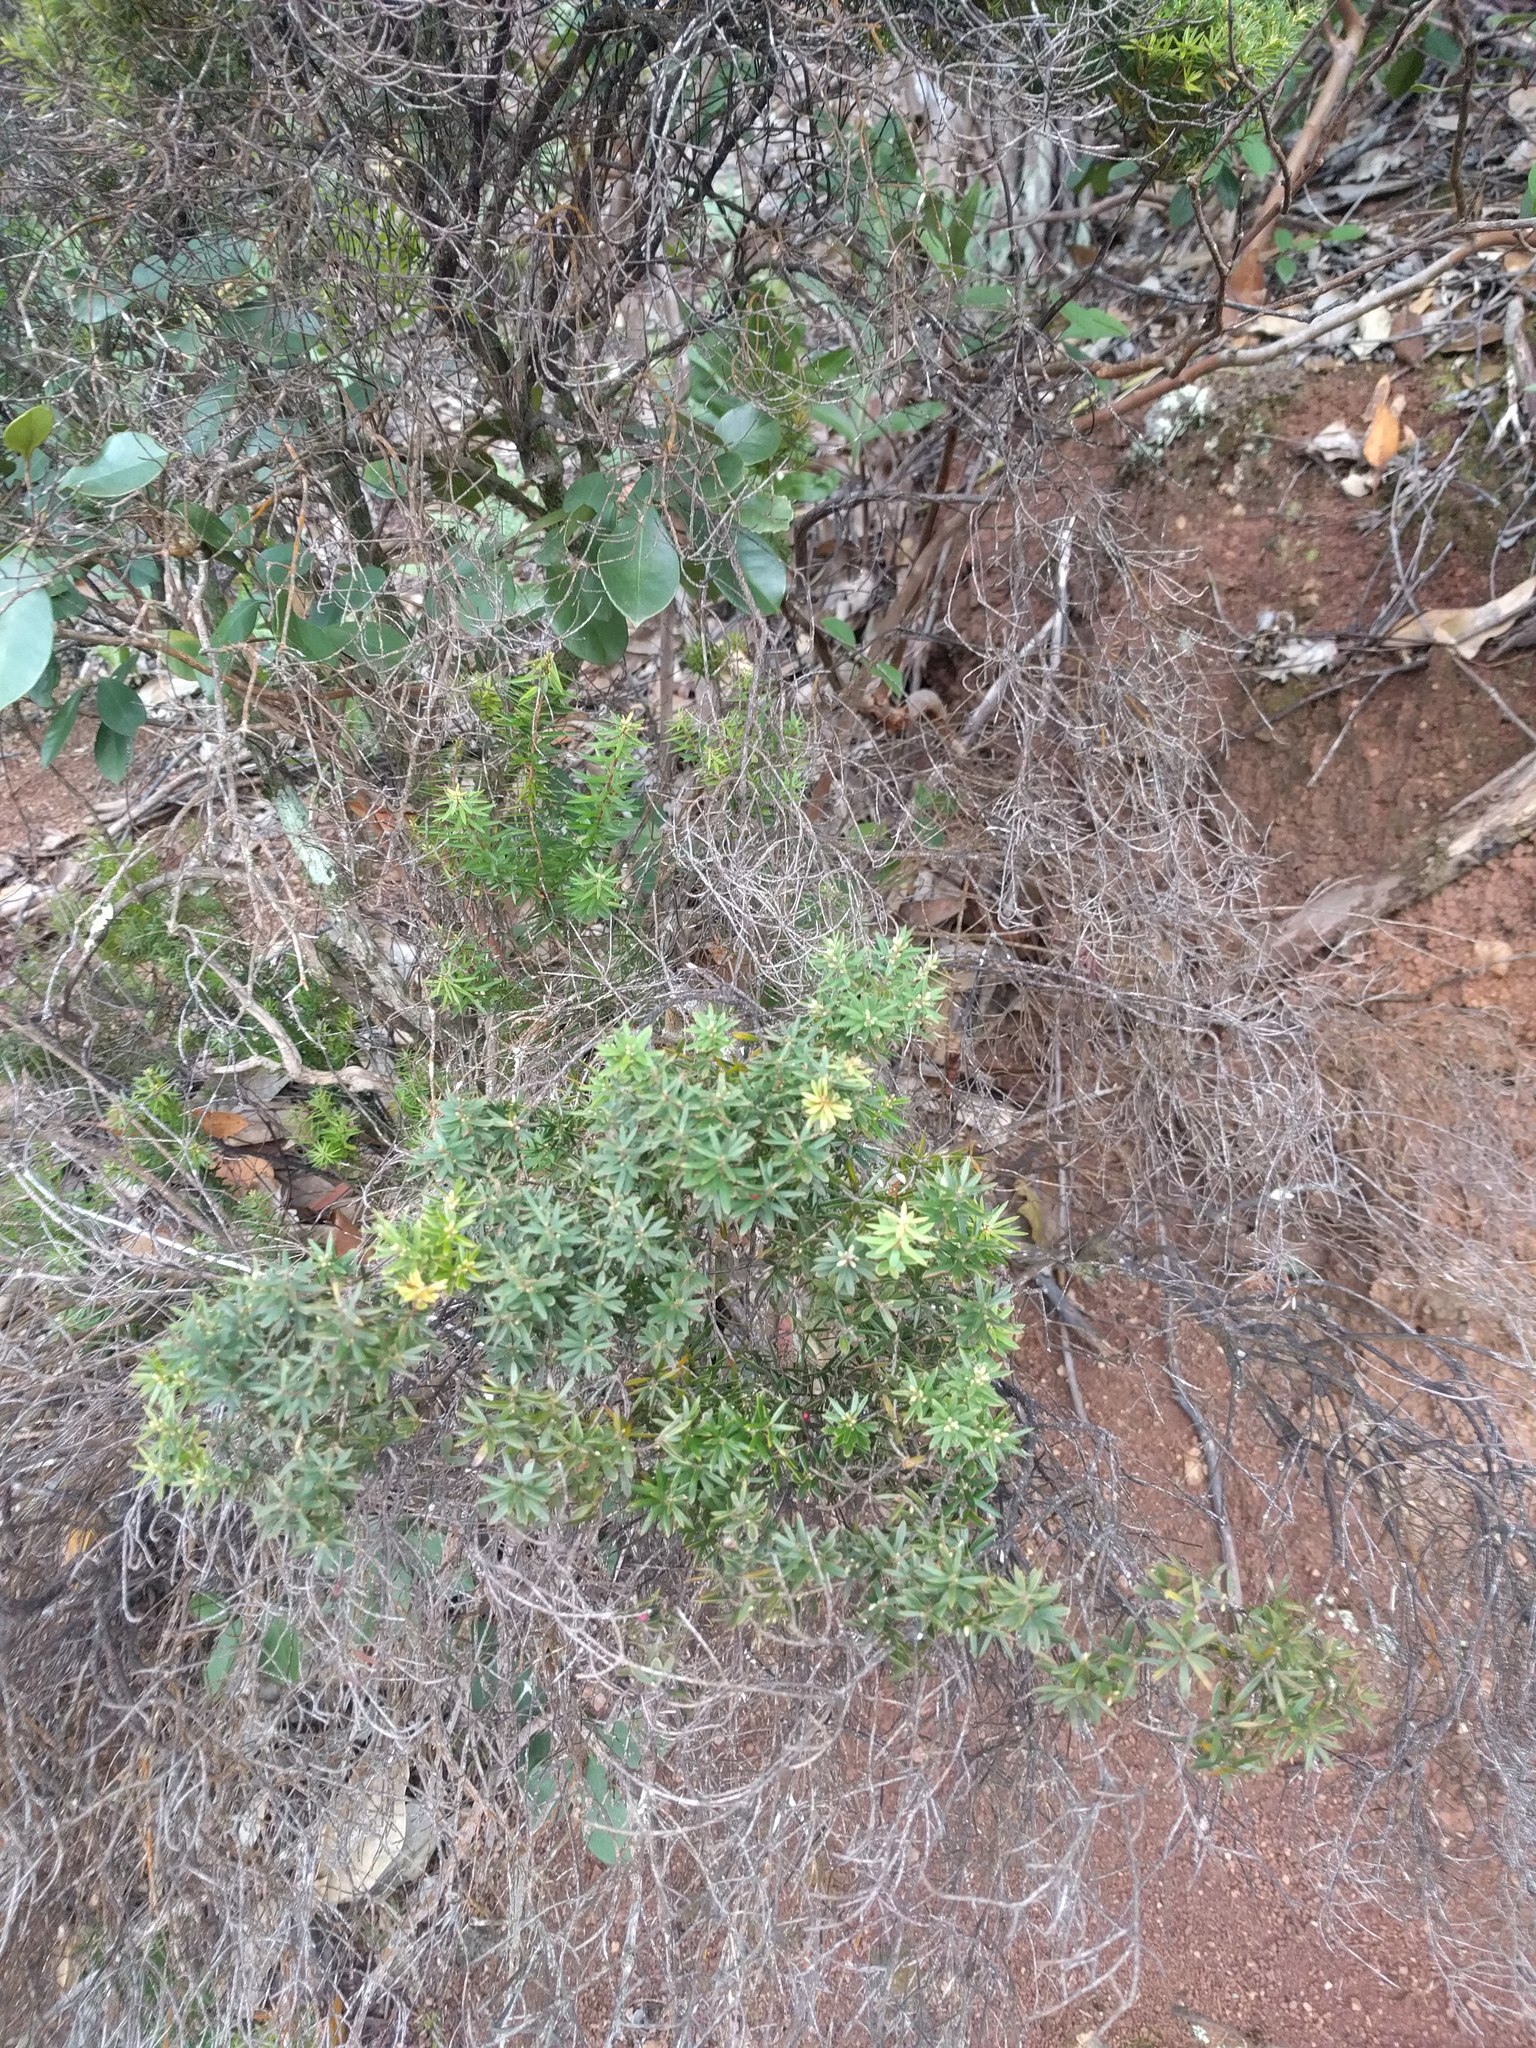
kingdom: Plantae
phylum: Tracheophyta
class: Magnoliopsida
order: Ericales
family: Ericaceae
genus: Leptecophylla
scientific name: Leptecophylla tameiameiae
